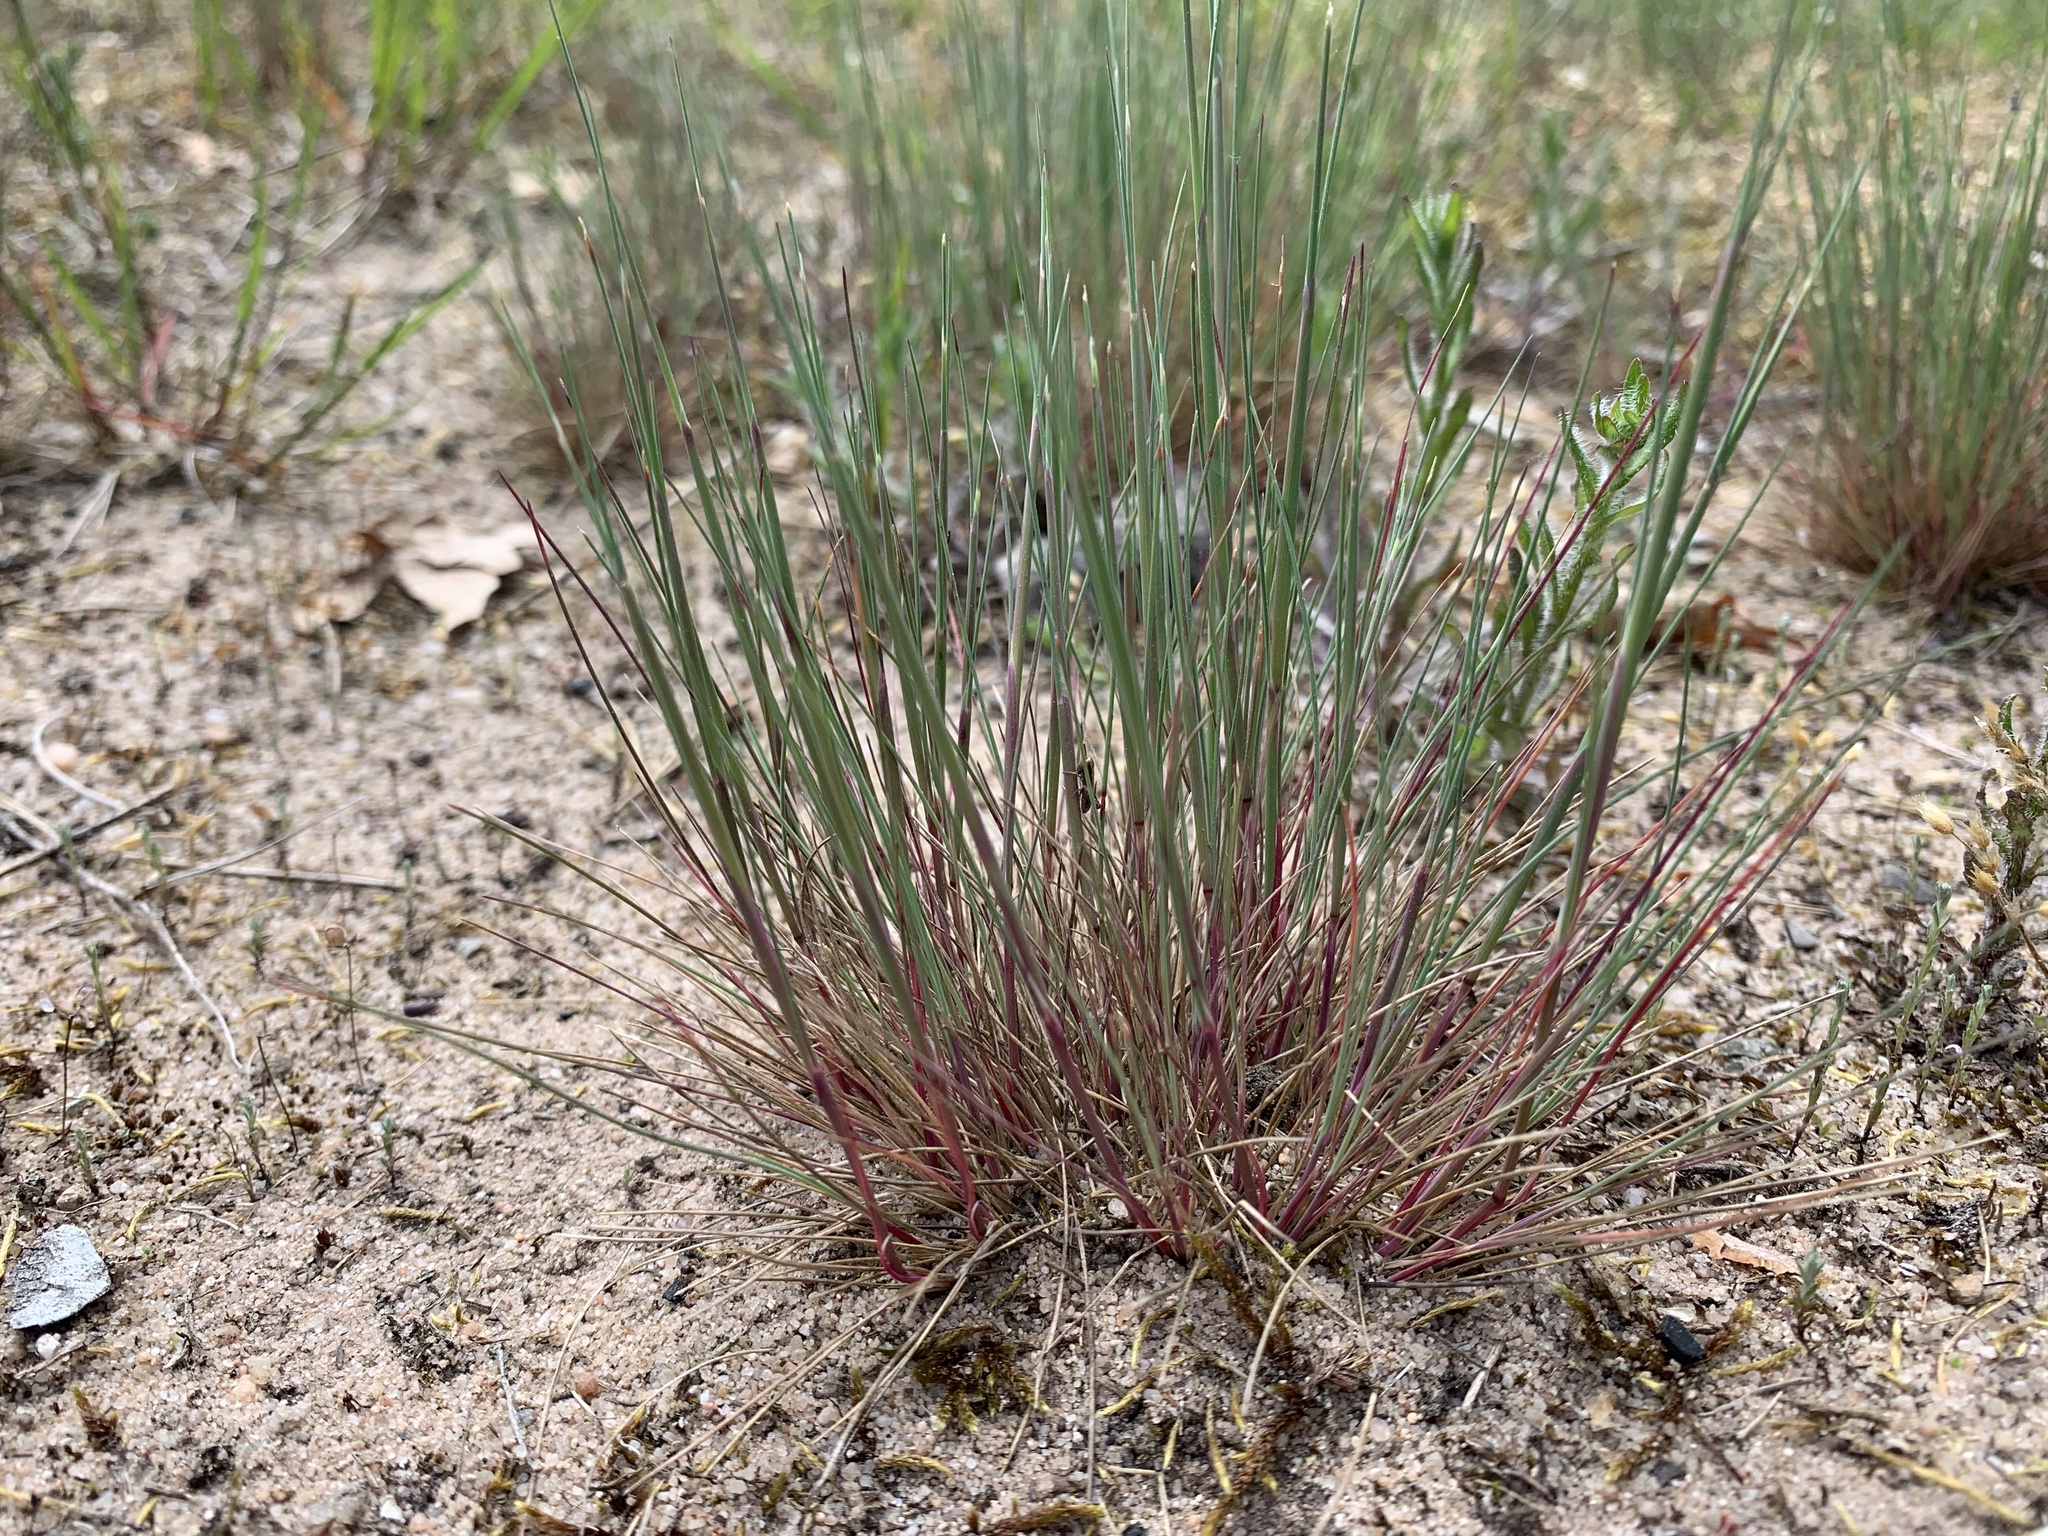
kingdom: Plantae
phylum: Tracheophyta
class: Liliopsida
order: Poales
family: Poaceae
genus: Corynephorus
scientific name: Corynephorus canescens
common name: Grey hair-grass
